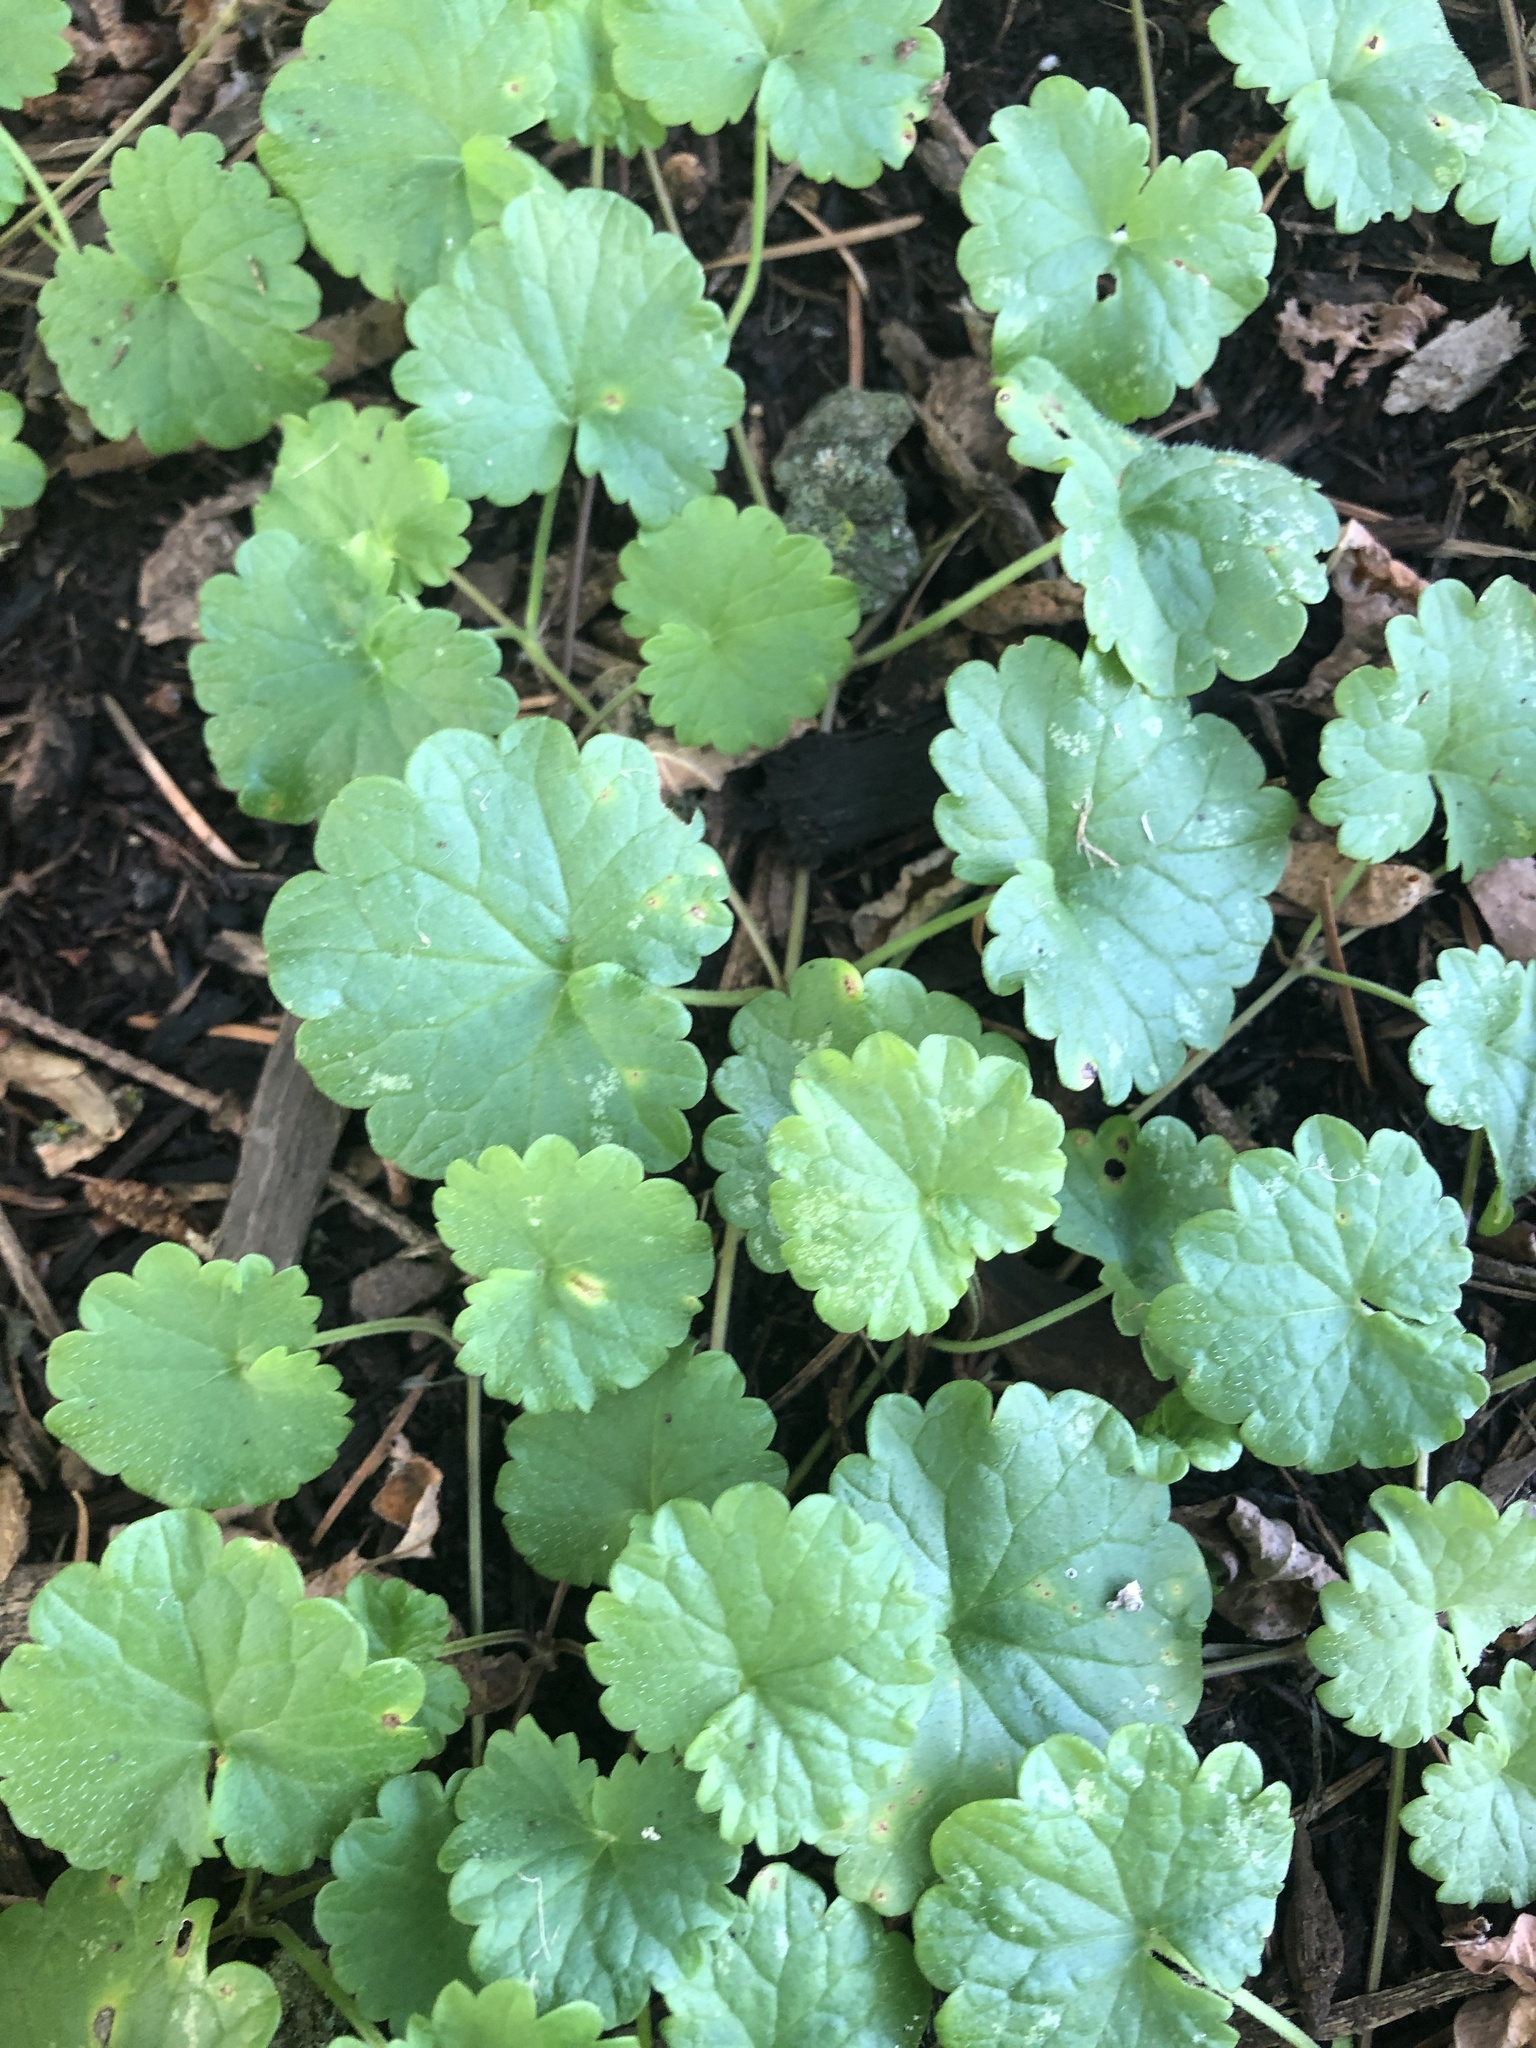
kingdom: Plantae
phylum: Tracheophyta
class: Magnoliopsida
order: Lamiales
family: Lamiaceae
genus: Glechoma
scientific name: Glechoma hederacea
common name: Ground ivy
